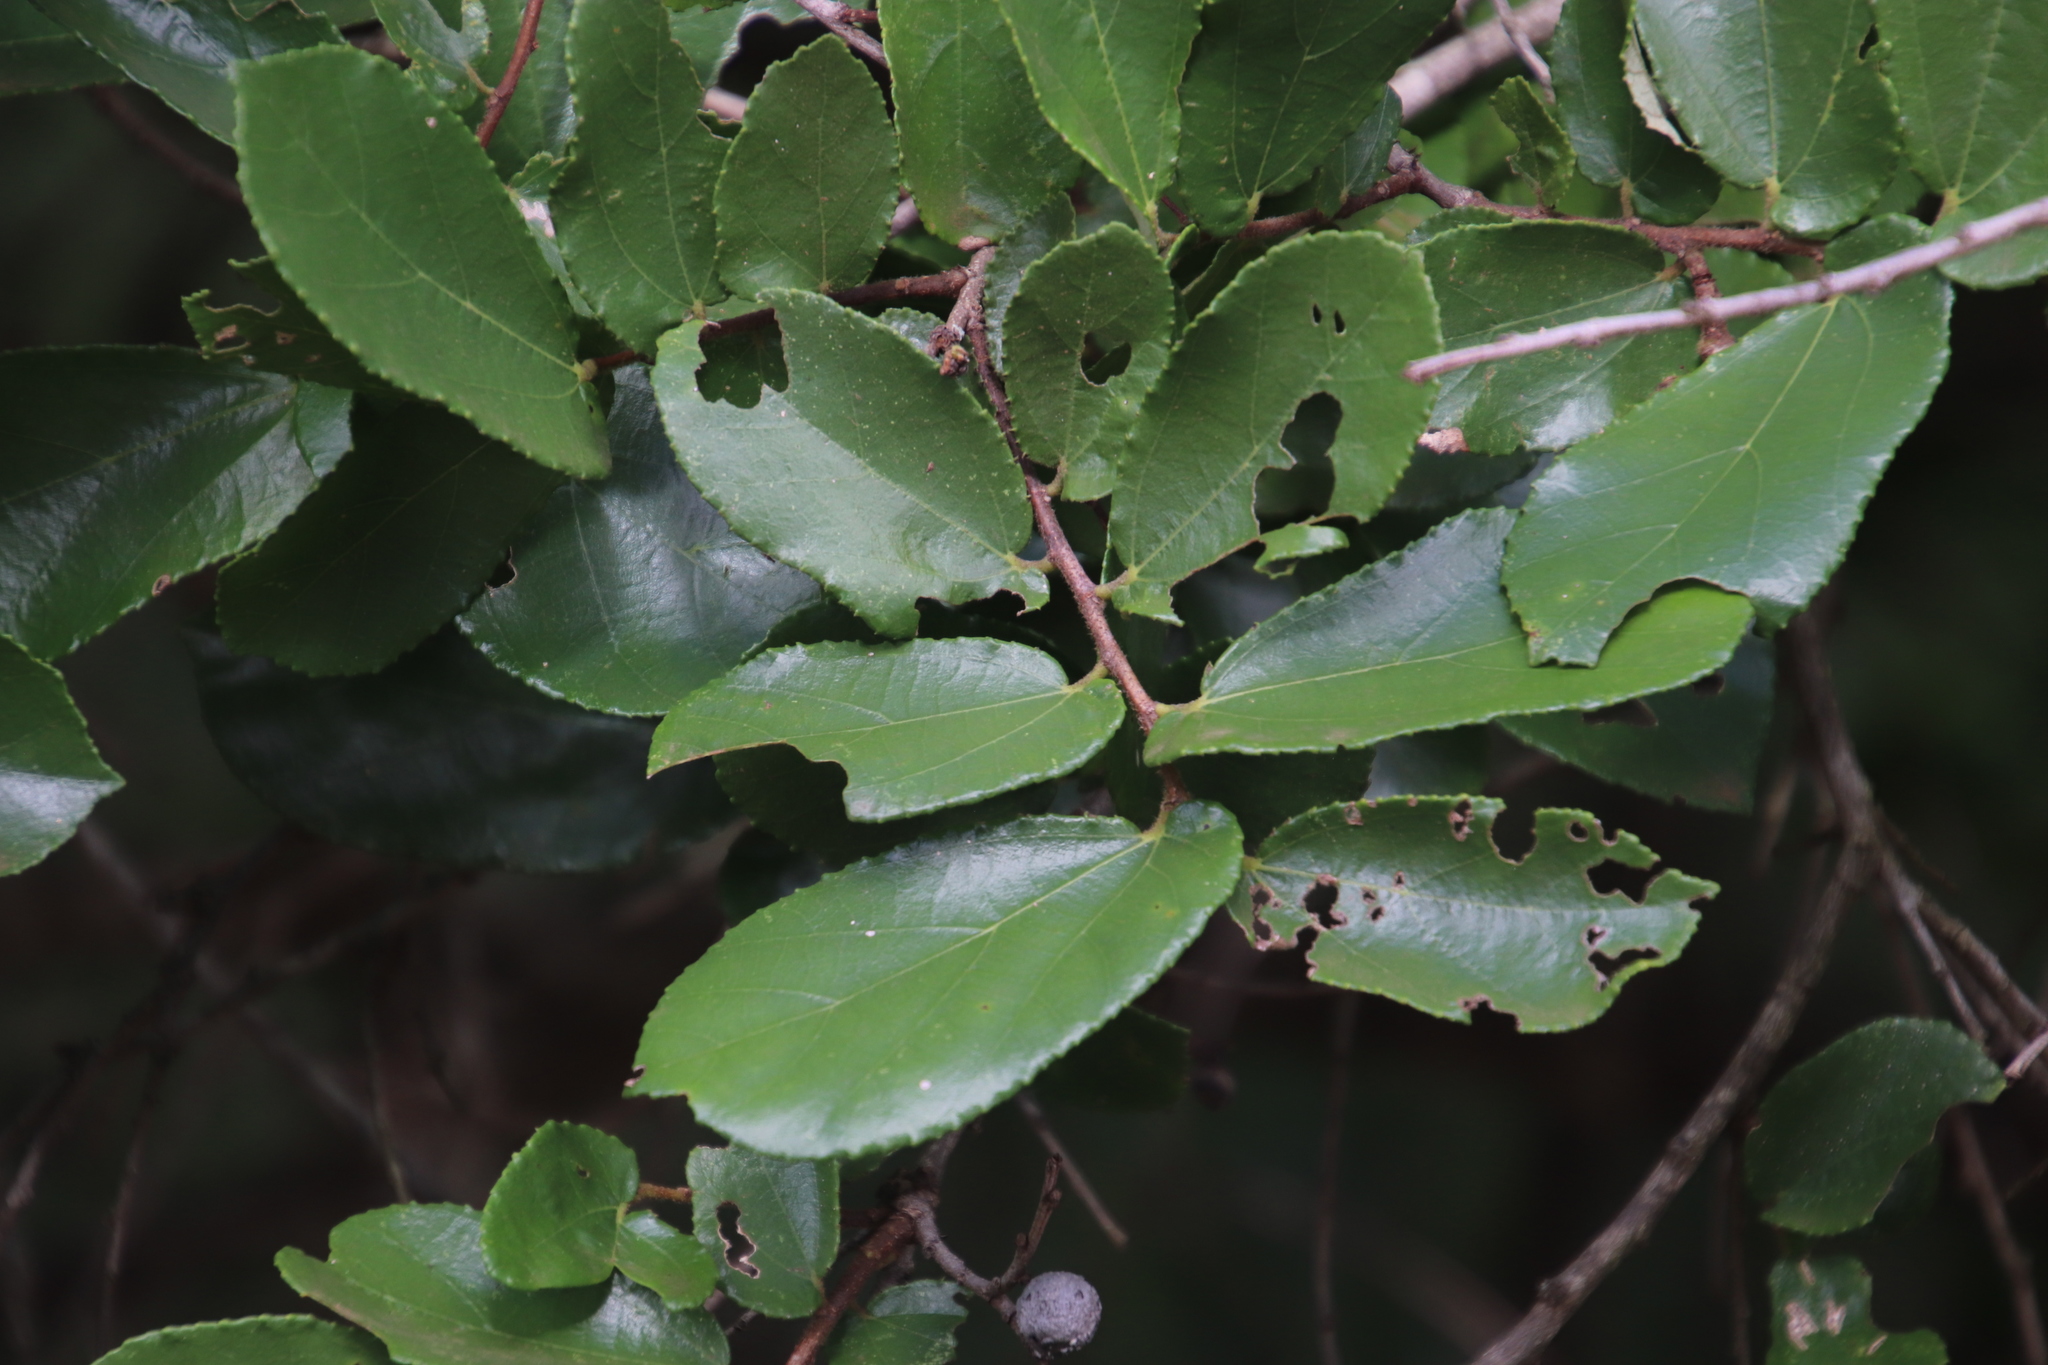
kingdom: Plantae
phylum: Tracheophyta
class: Magnoliopsida
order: Malvales
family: Malvaceae
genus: Grewia
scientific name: Grewia hexamita
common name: Giant raisin
